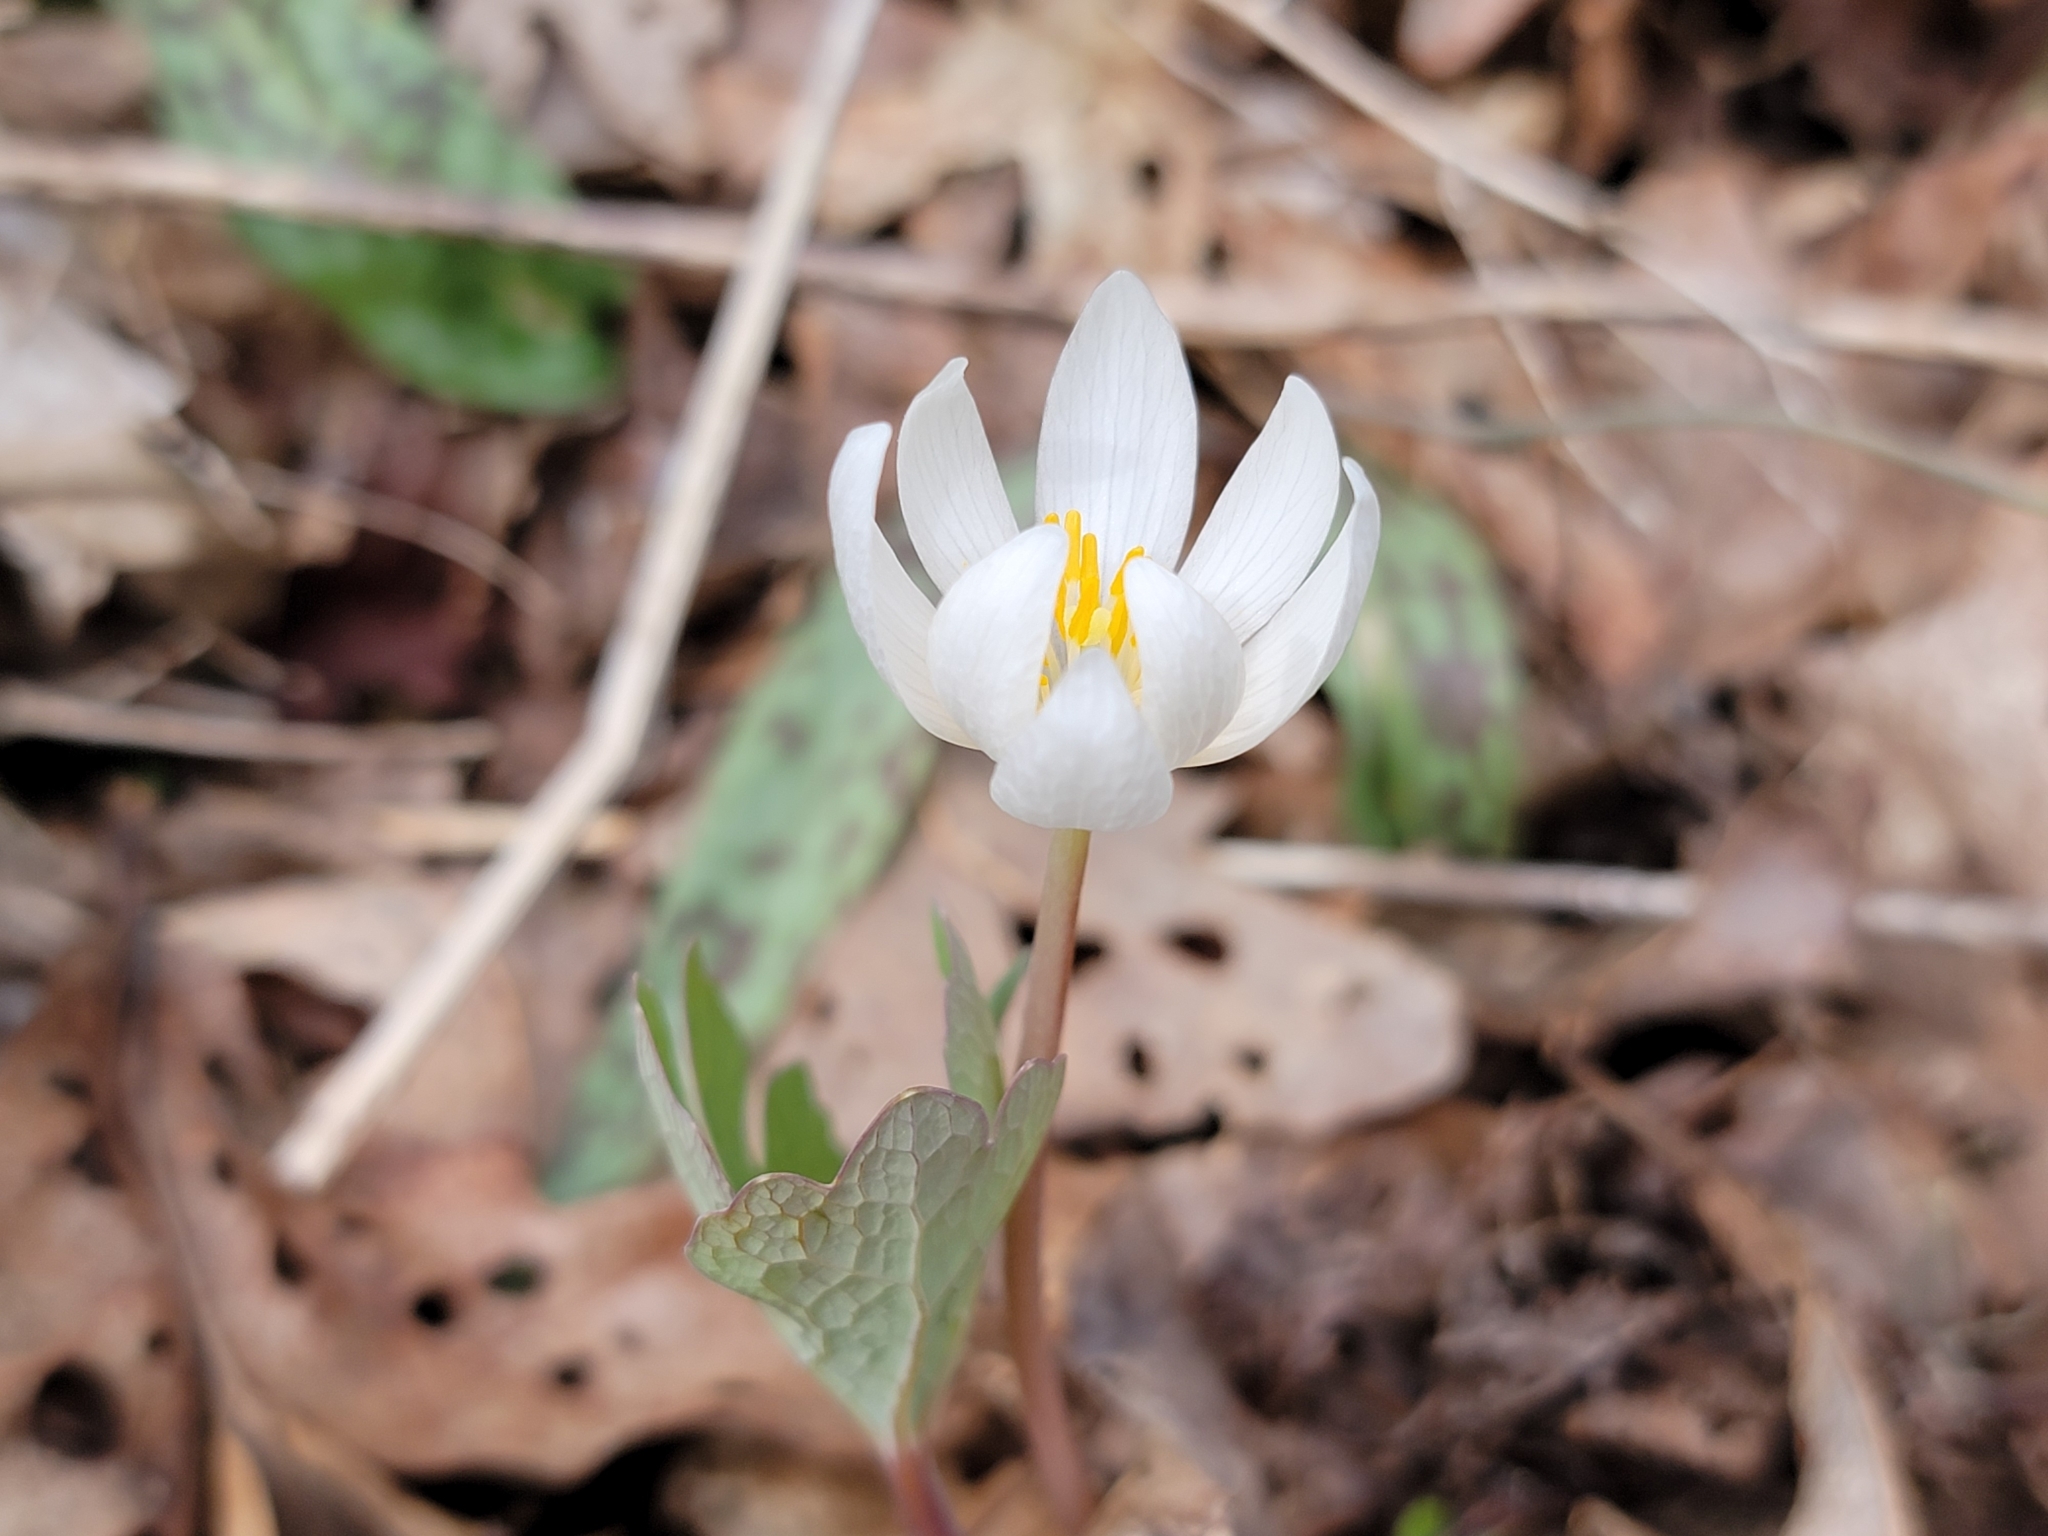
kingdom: Plantae
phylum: Tracheophyta
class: Magnoliopsida
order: Ranunculales
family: Papaveraceae
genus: Sanguinaria
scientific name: Sanguinaria canadensis
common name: Bloodroot
